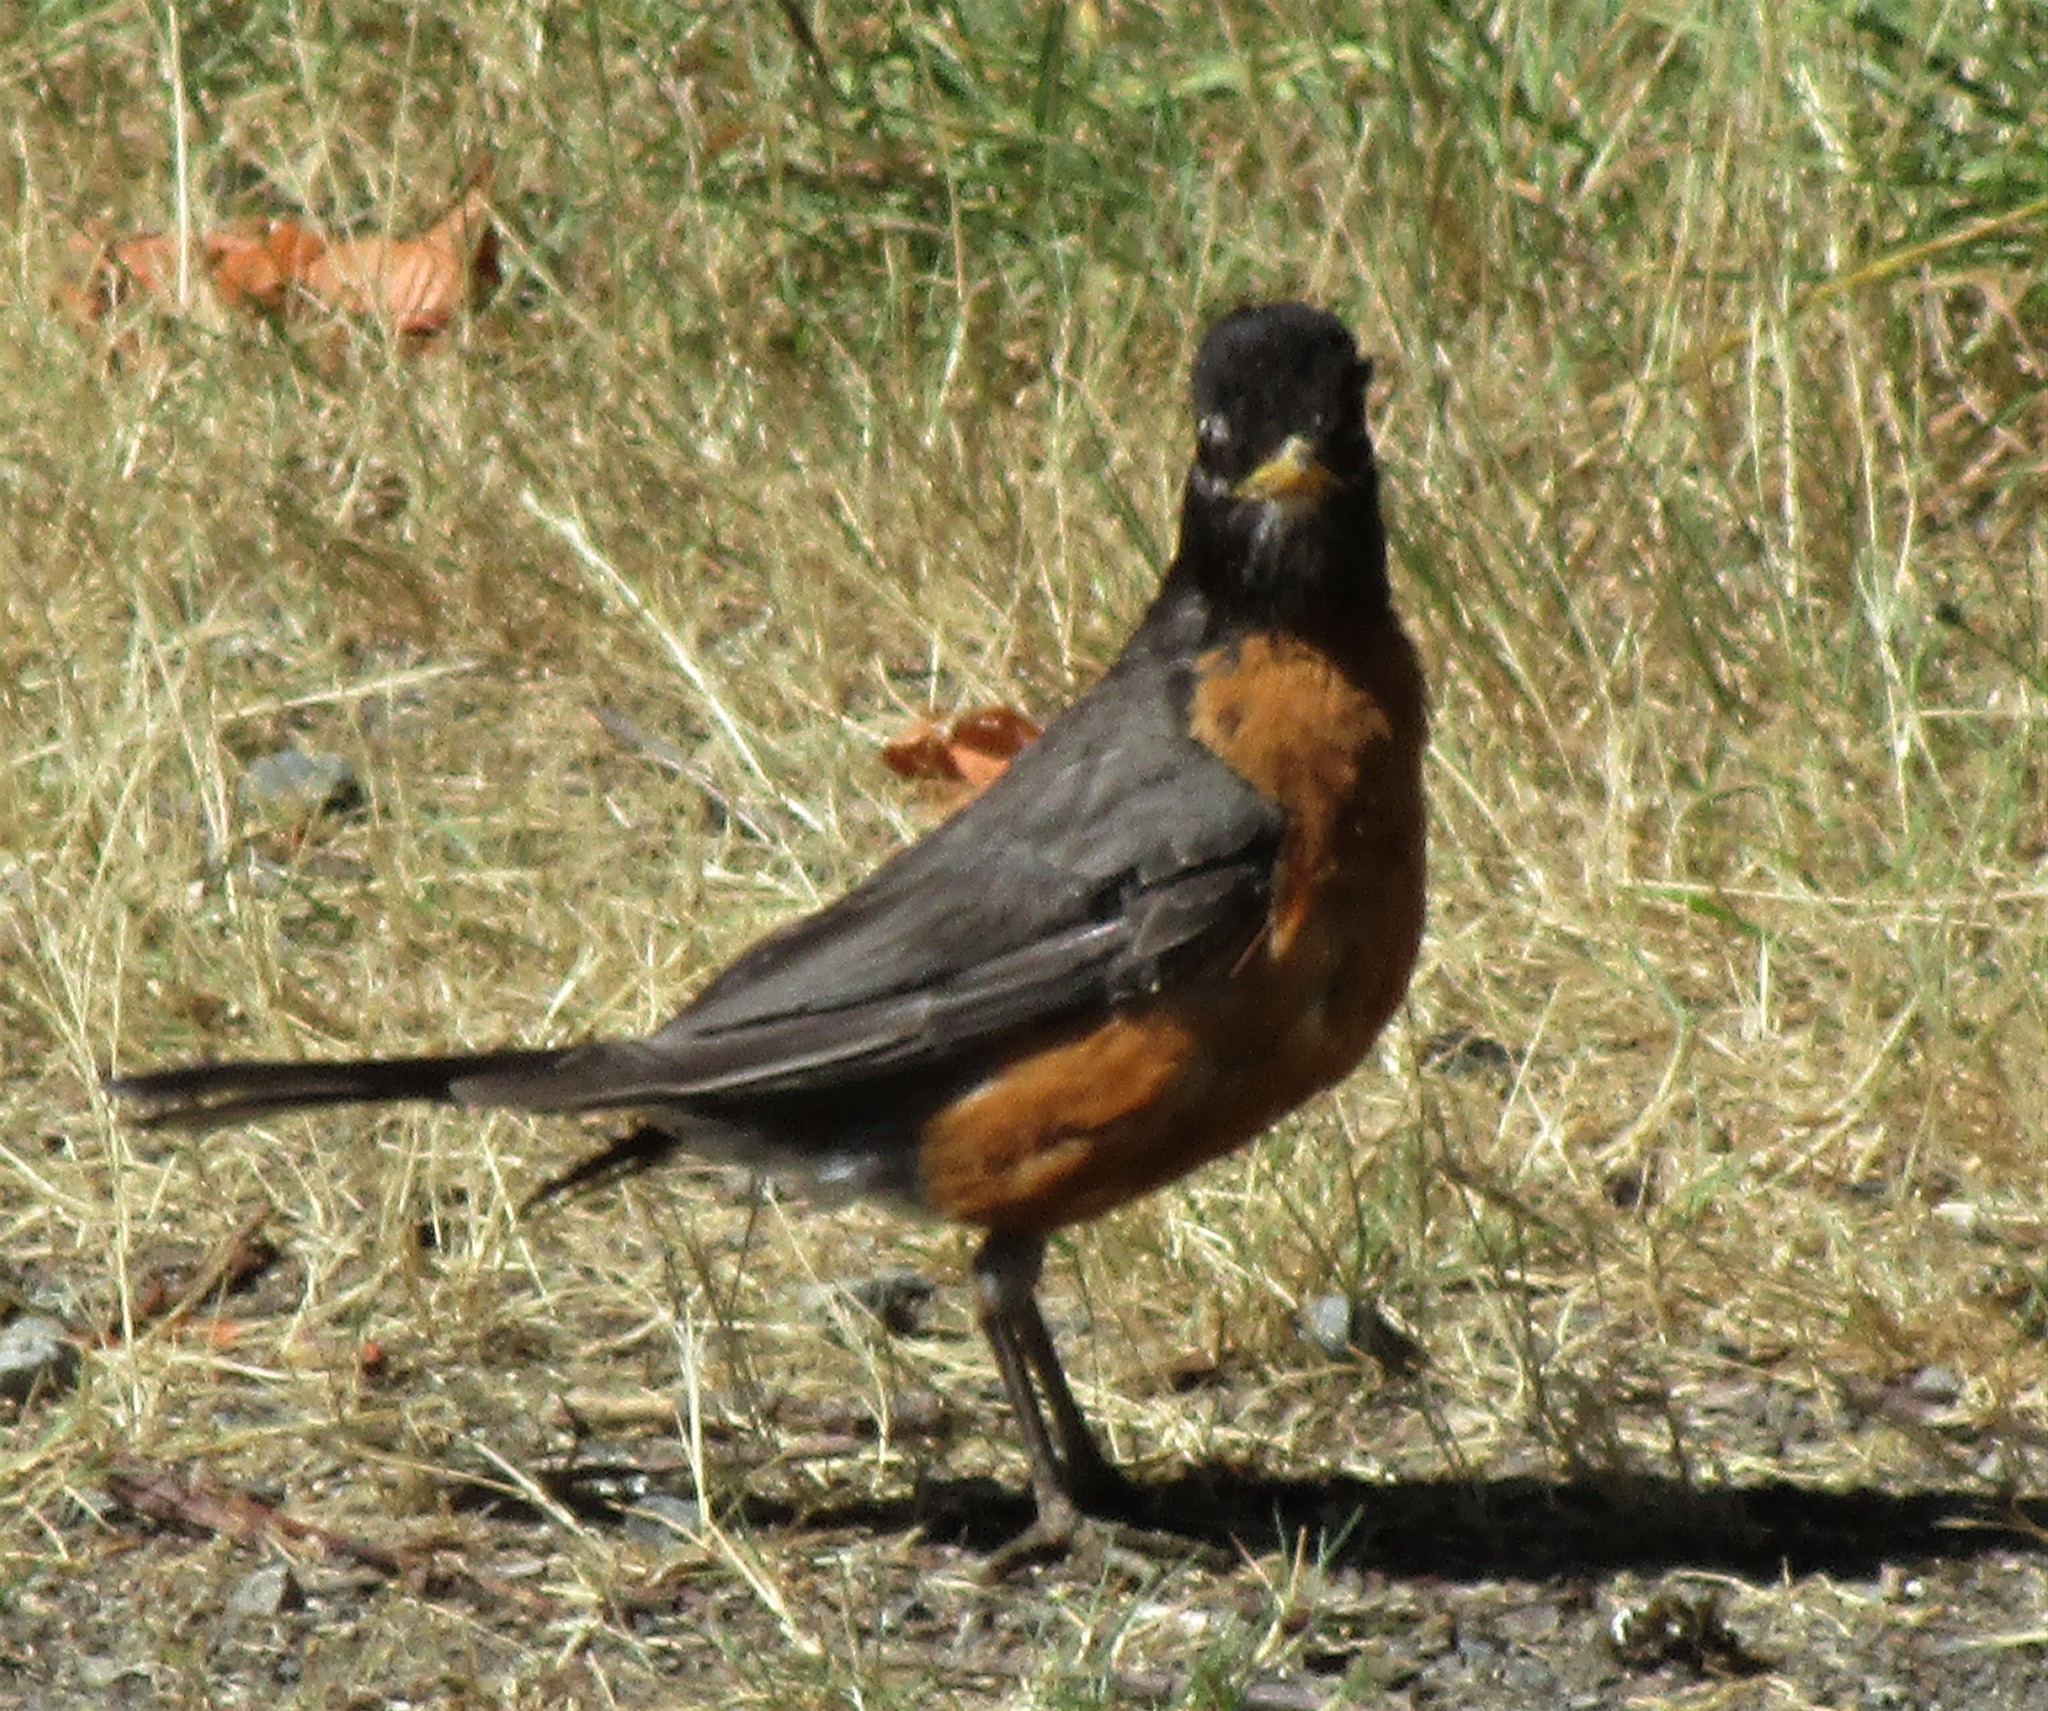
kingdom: Animalia
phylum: Chordata
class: Aves
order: Passeriformes
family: Turdidae
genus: Turdus
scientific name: Turdus migratorius
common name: American robin
